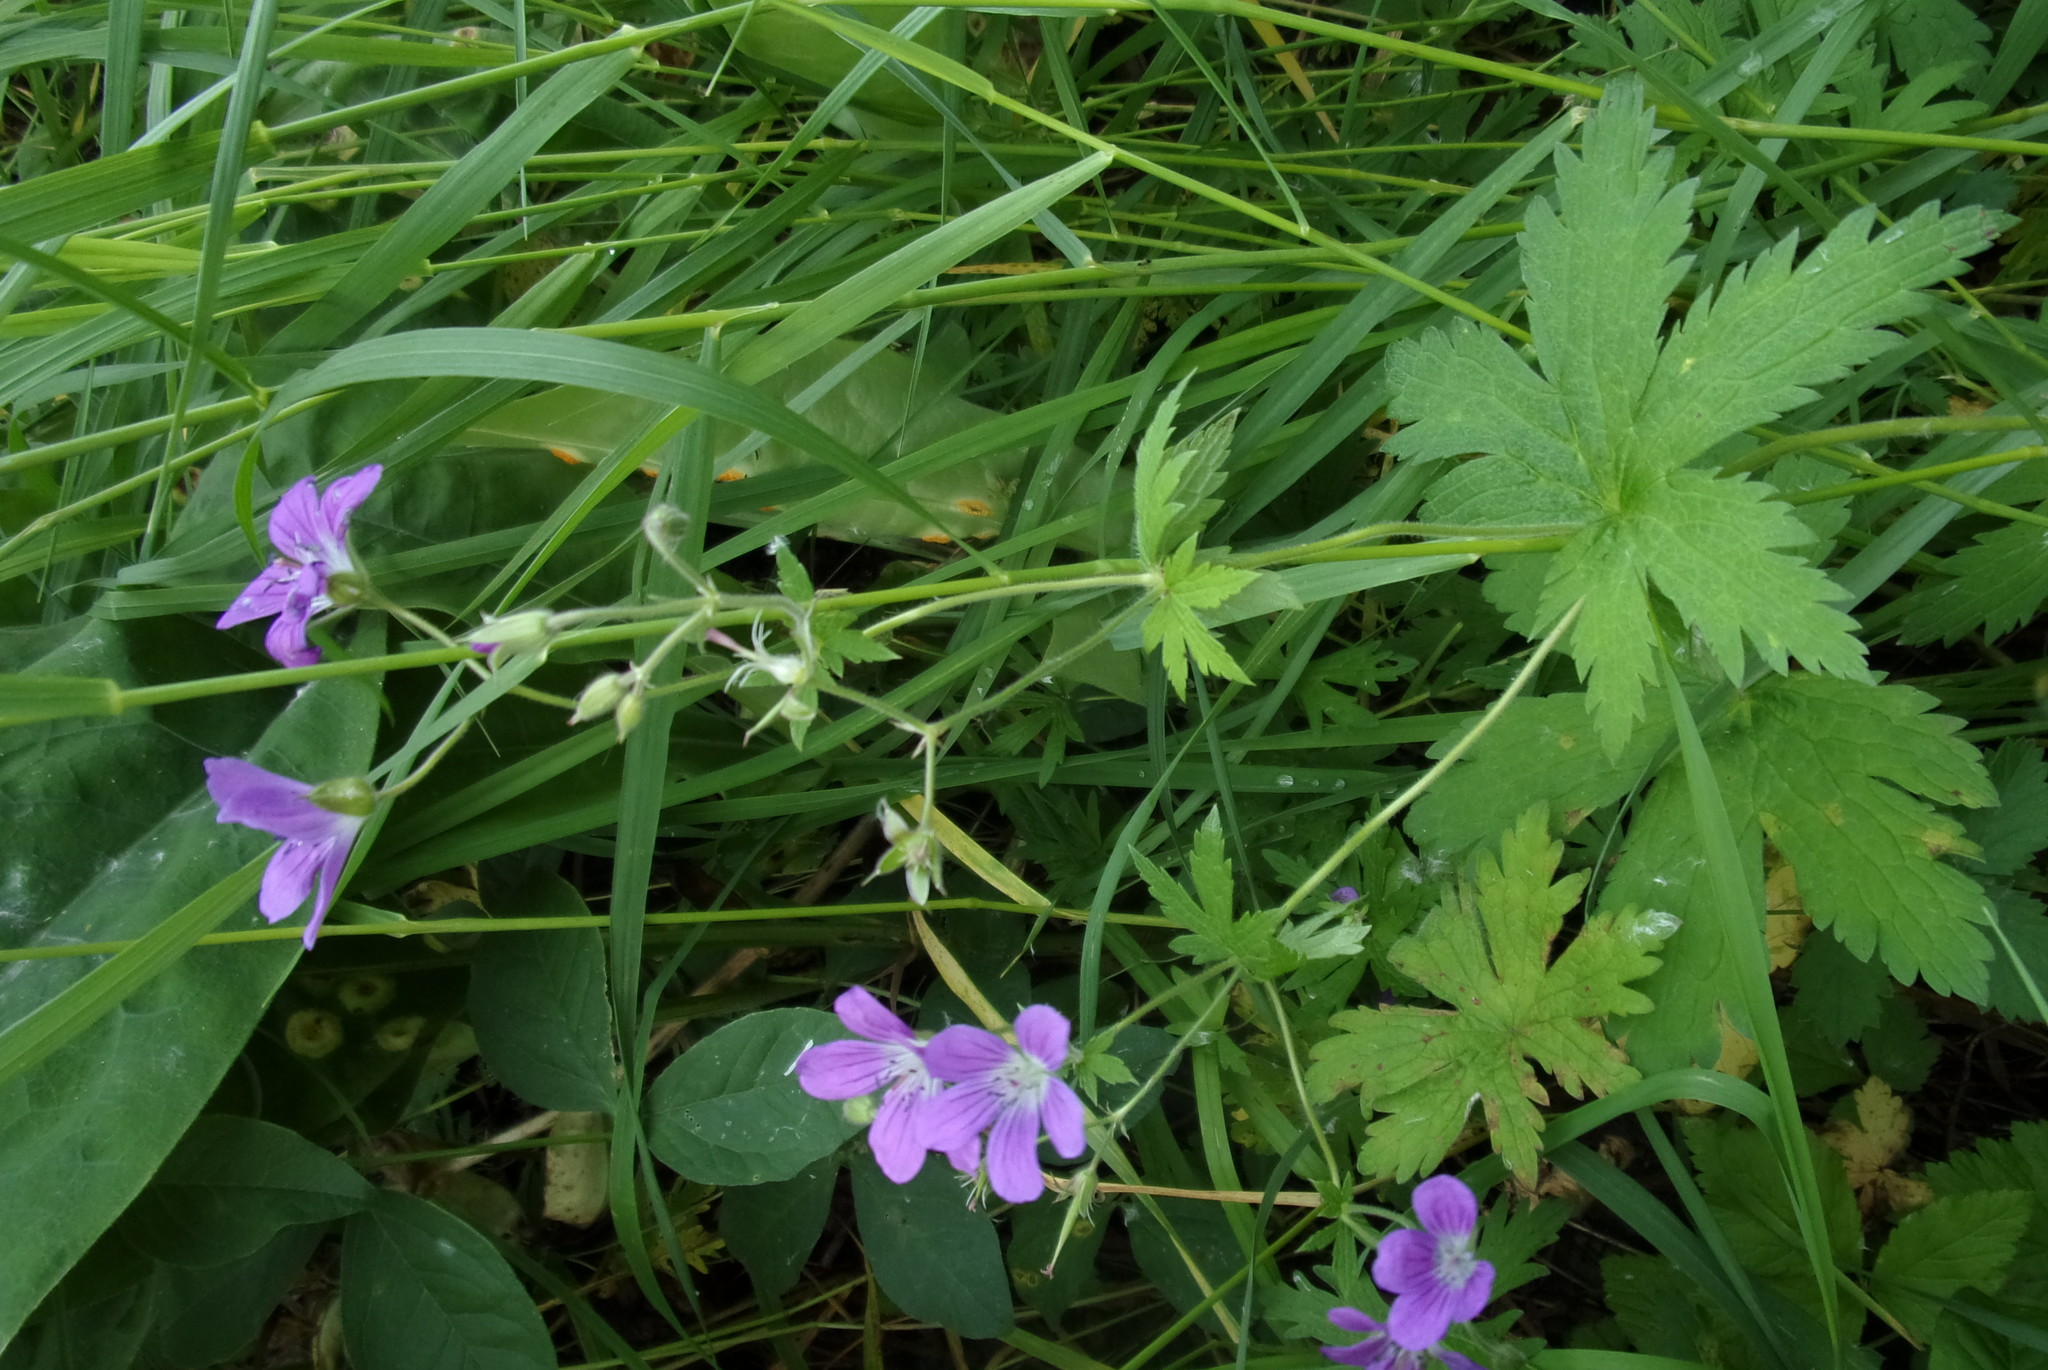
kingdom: Plantae
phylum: Tracheophyta
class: Magnoliopsida
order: Geraniales
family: Geraniaceae
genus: Geranium
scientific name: Geranium sylvaticum
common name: Wood crane's-bill
